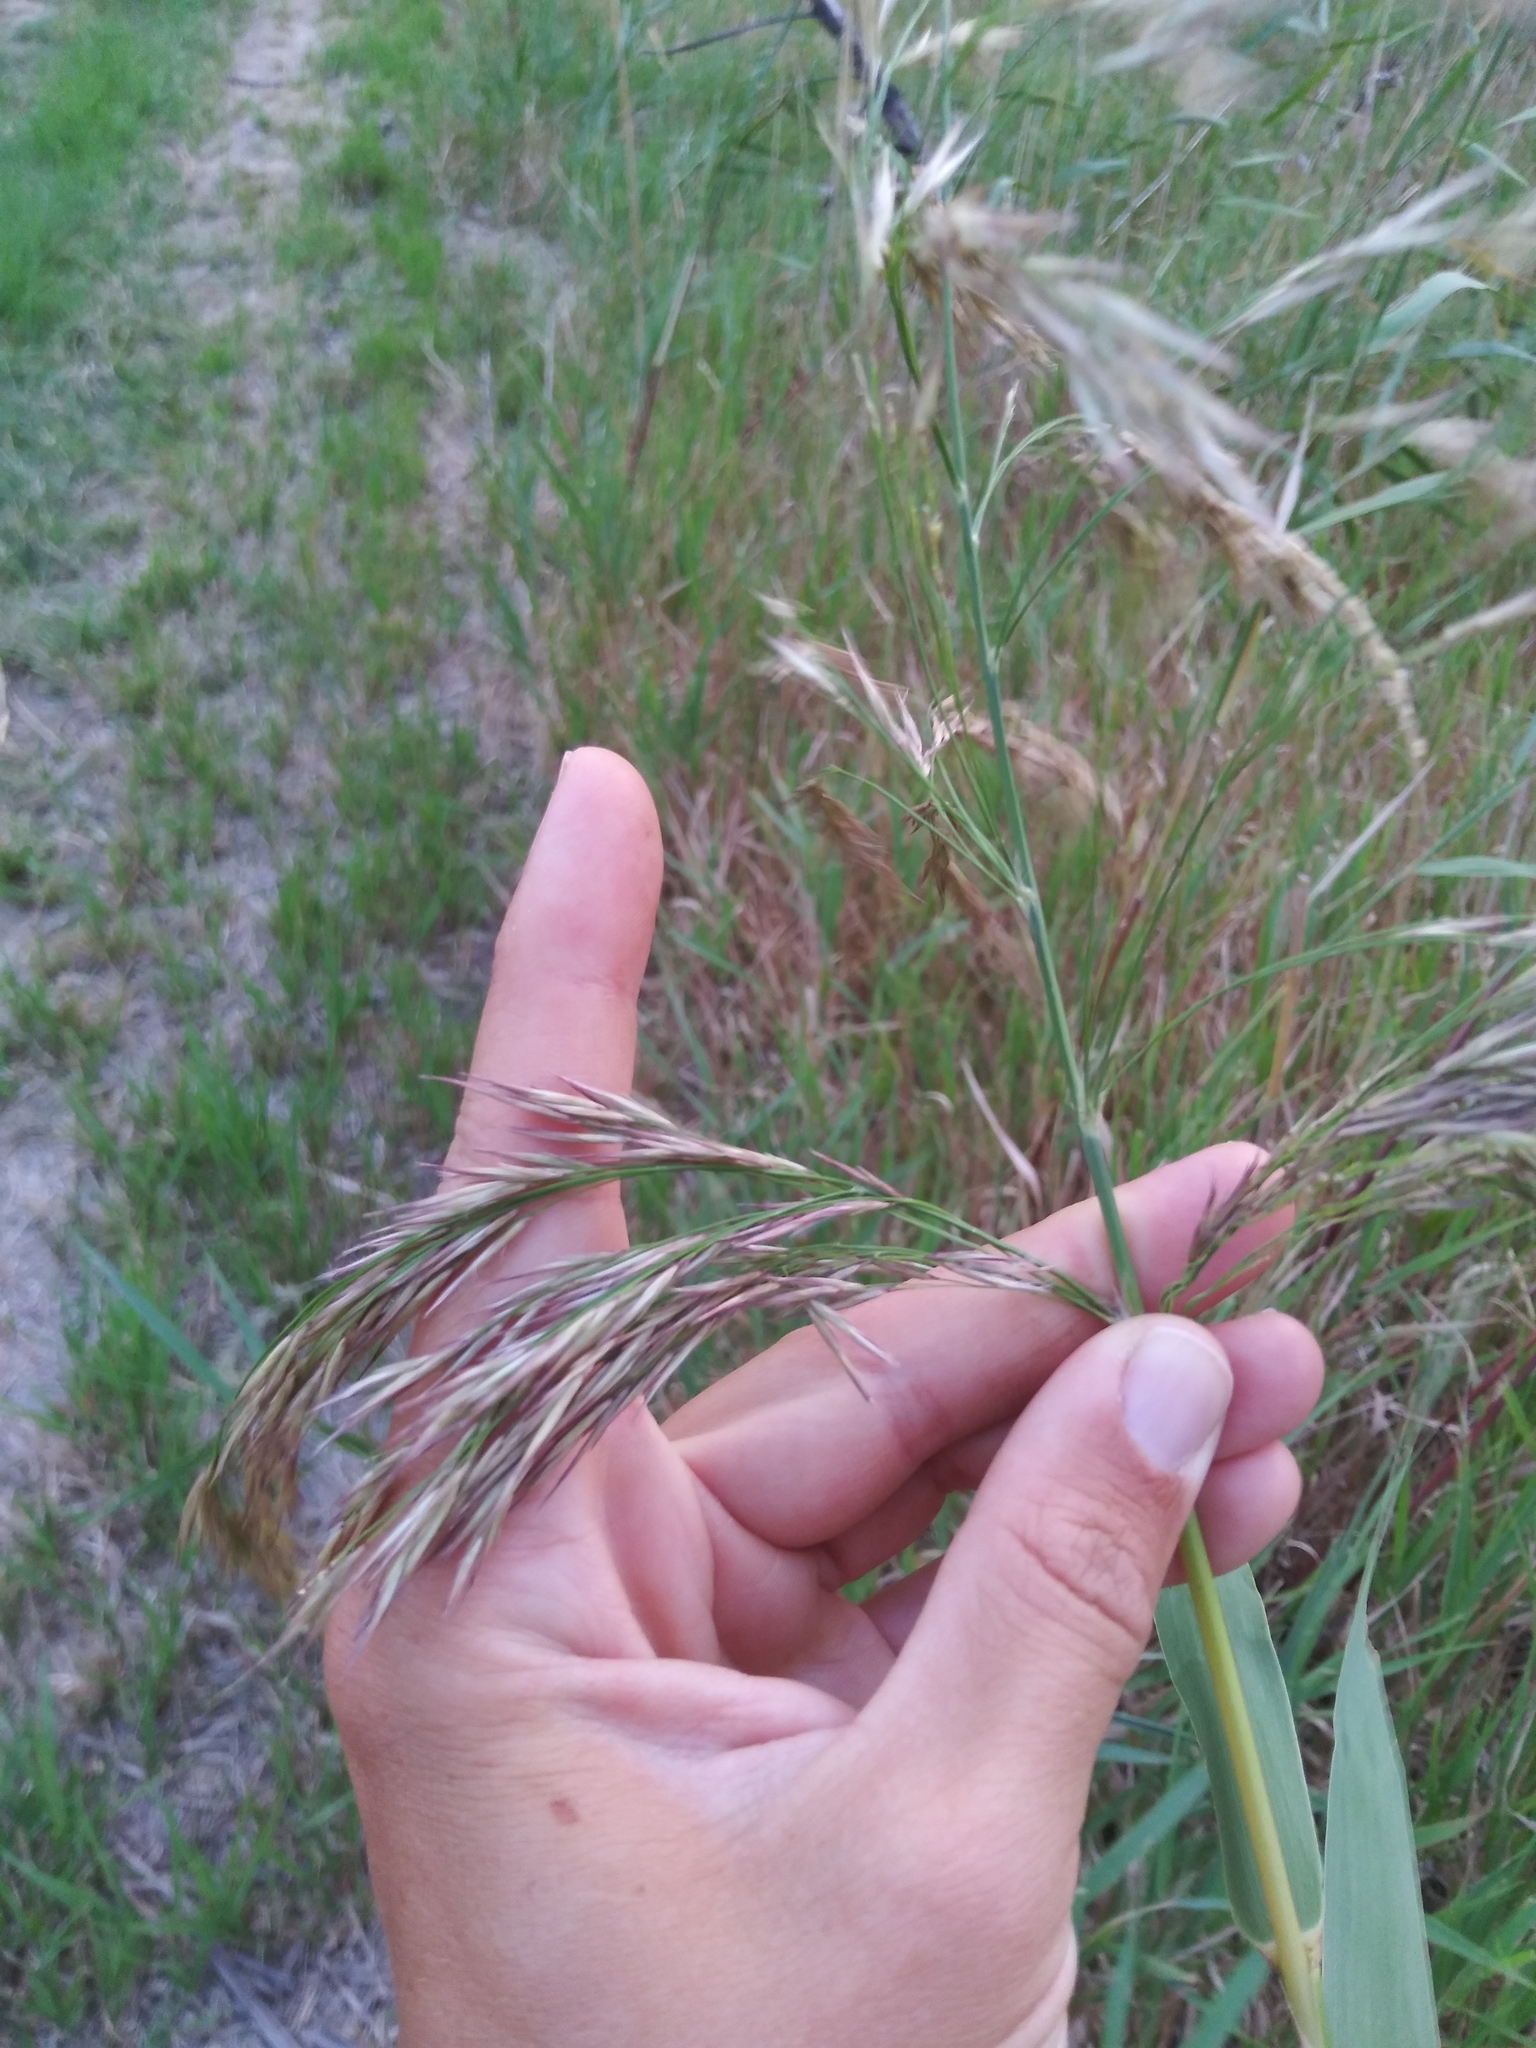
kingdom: Plantae
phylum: Tracheophyta
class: Liliopsida
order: Poales
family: Poaceae
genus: Phragmites
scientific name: Phragmites australis
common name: Common reed
